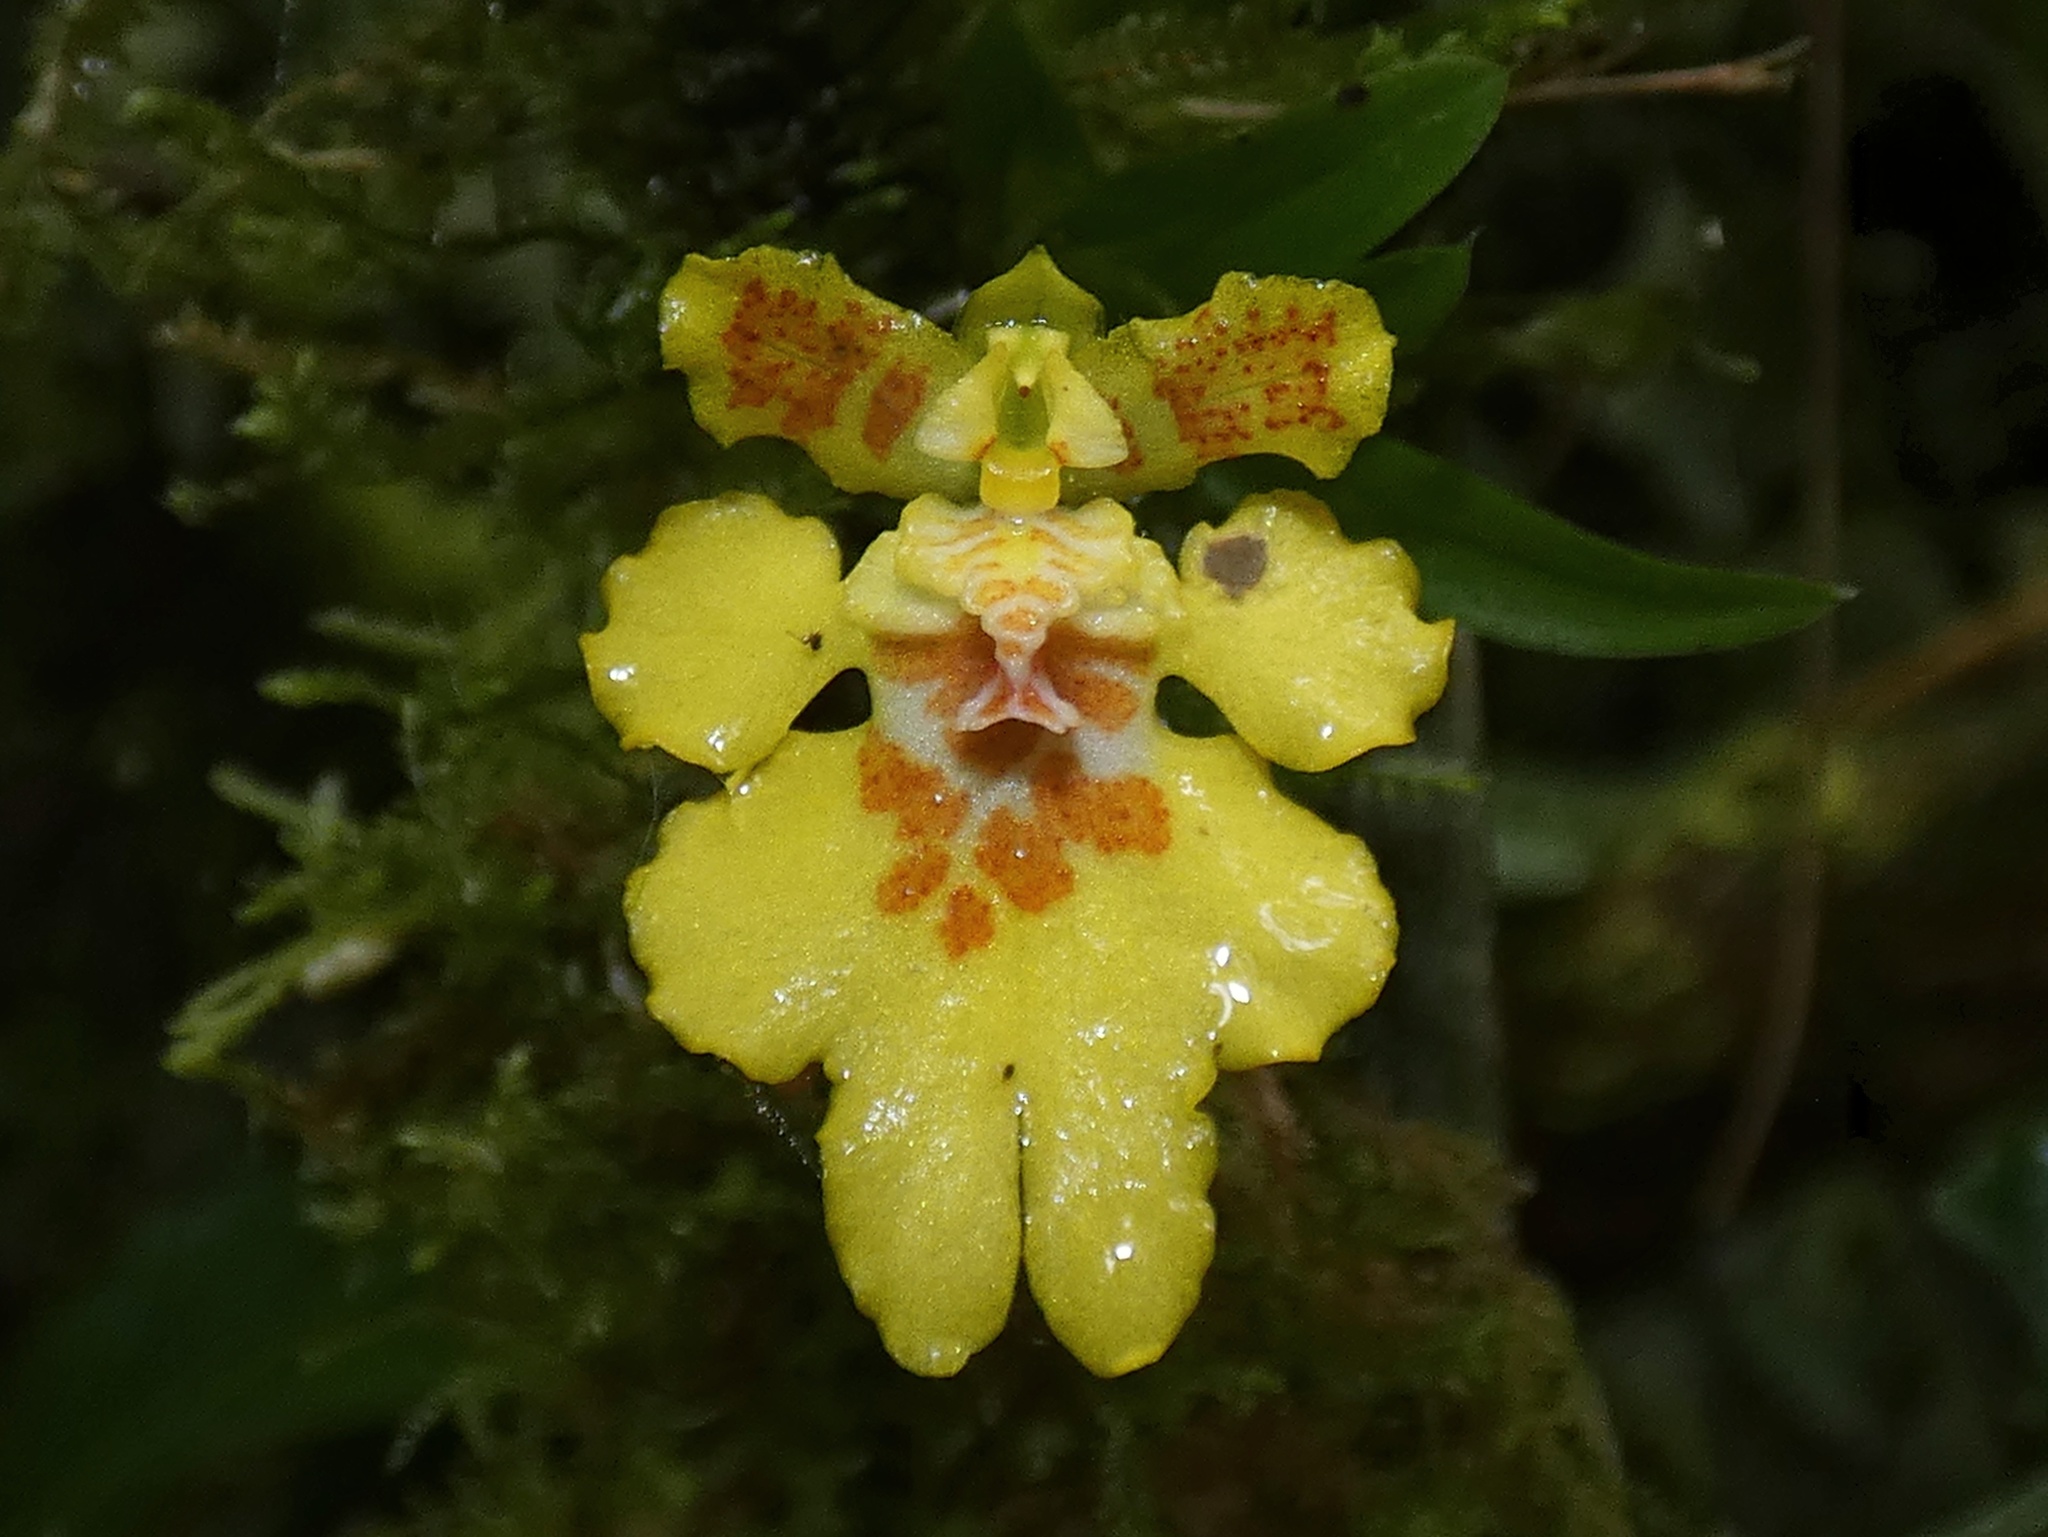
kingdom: Plantae
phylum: Tracheophyta
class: Liliopsida
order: Asparagales
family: Orchidaceae
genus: Erycina
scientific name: Erycina crista-galli
